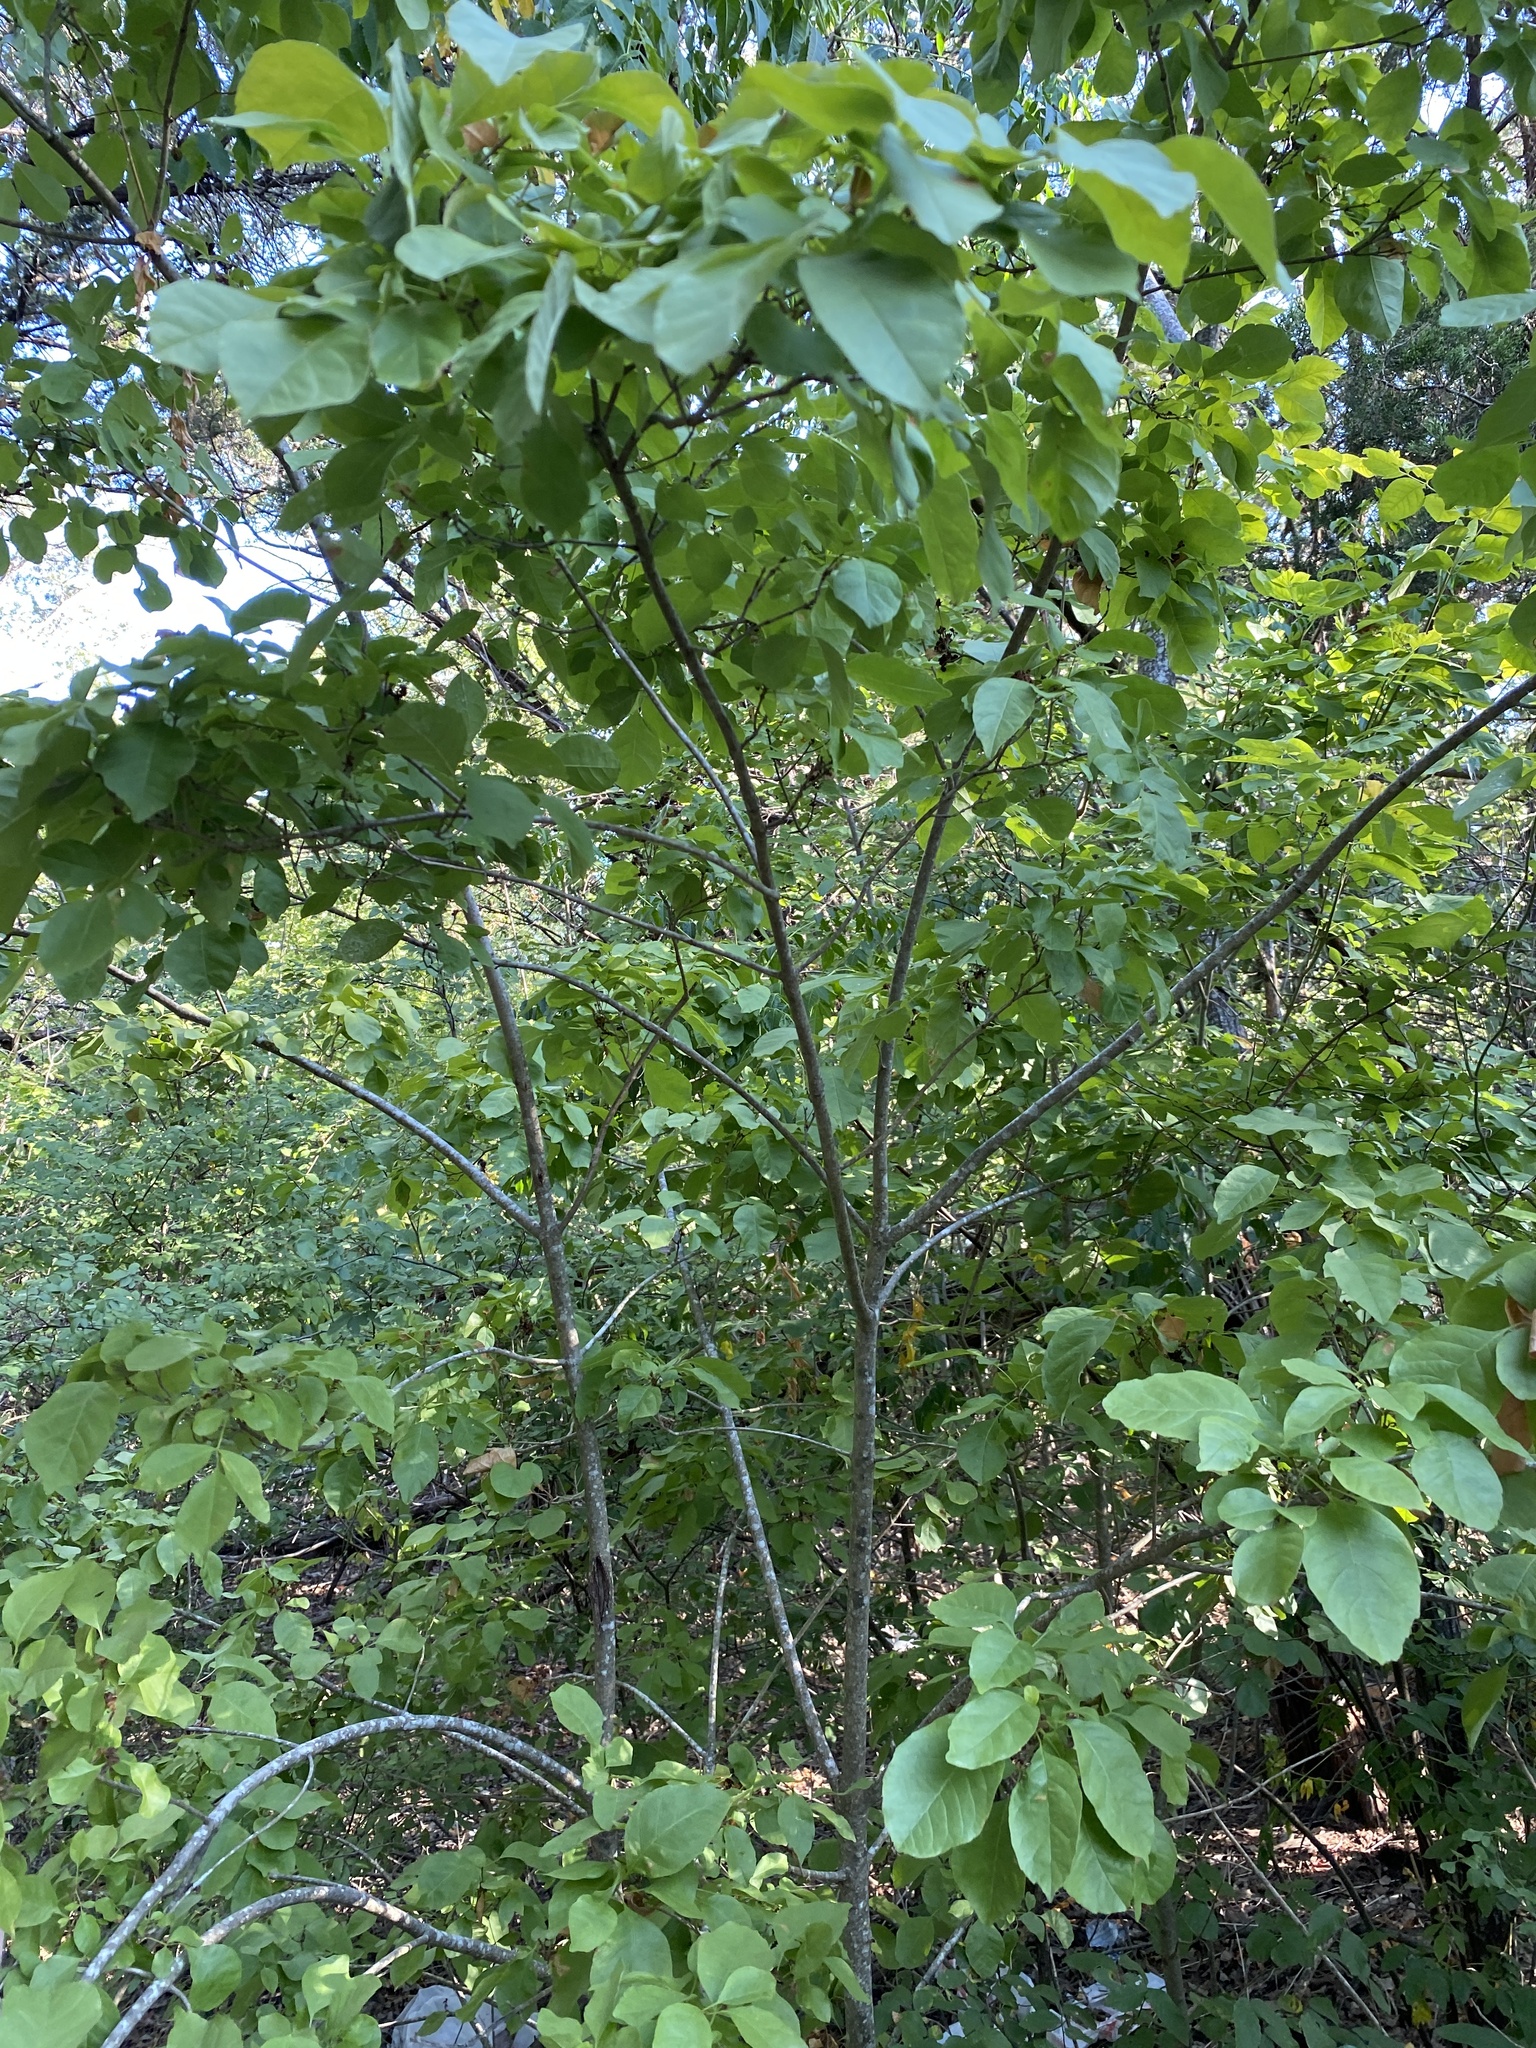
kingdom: Plantae
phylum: Tracheophyta
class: Magnoliopsida
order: Lamiales
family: Oleaceae
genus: Fraxinus
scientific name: Fraxinus albicans
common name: Texas ash
